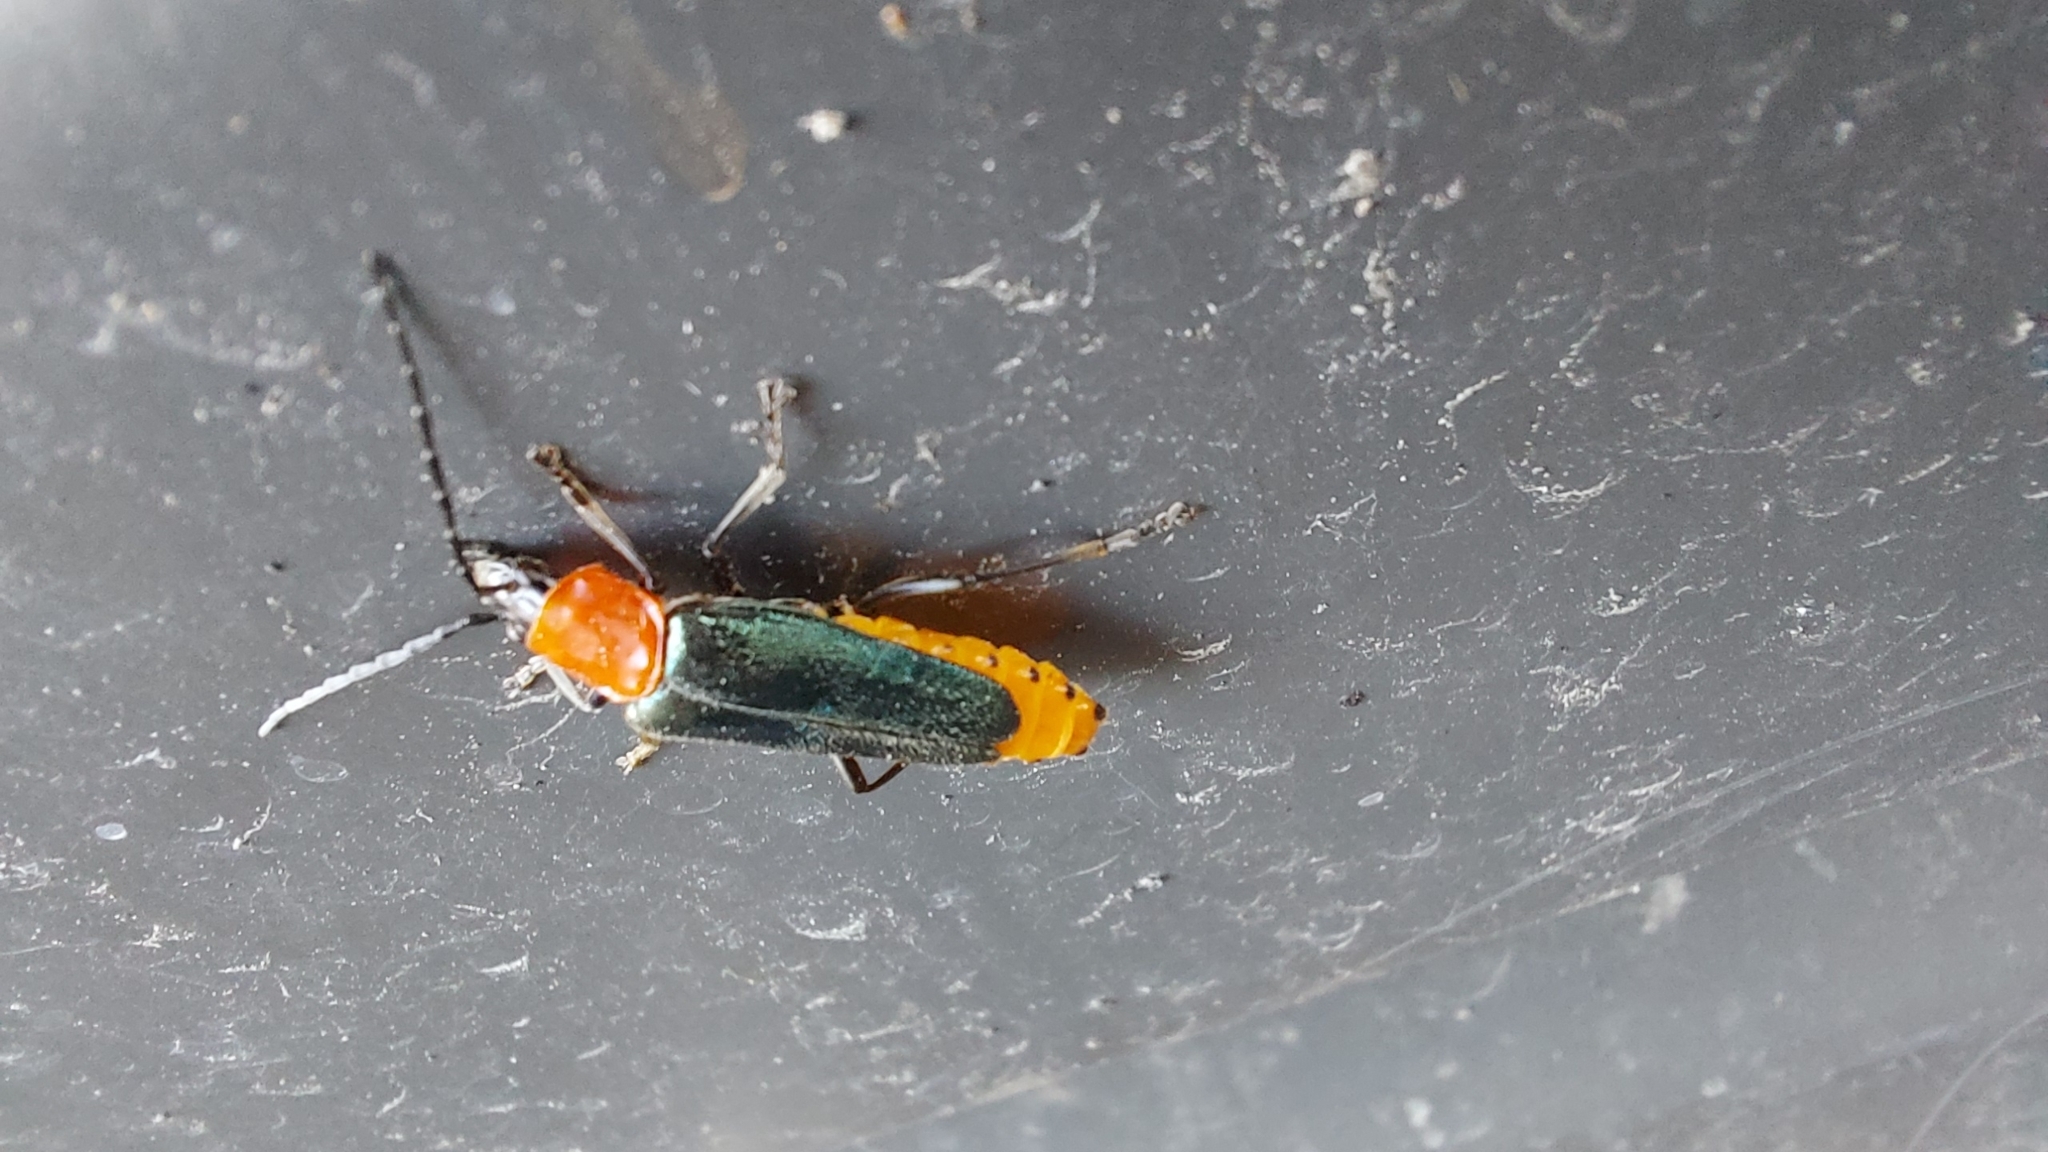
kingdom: Animalia
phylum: Arthropoda
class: Insecta
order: Coleoptera
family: Cantharidae
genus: Chauliognathus
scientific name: Chauliognathus
